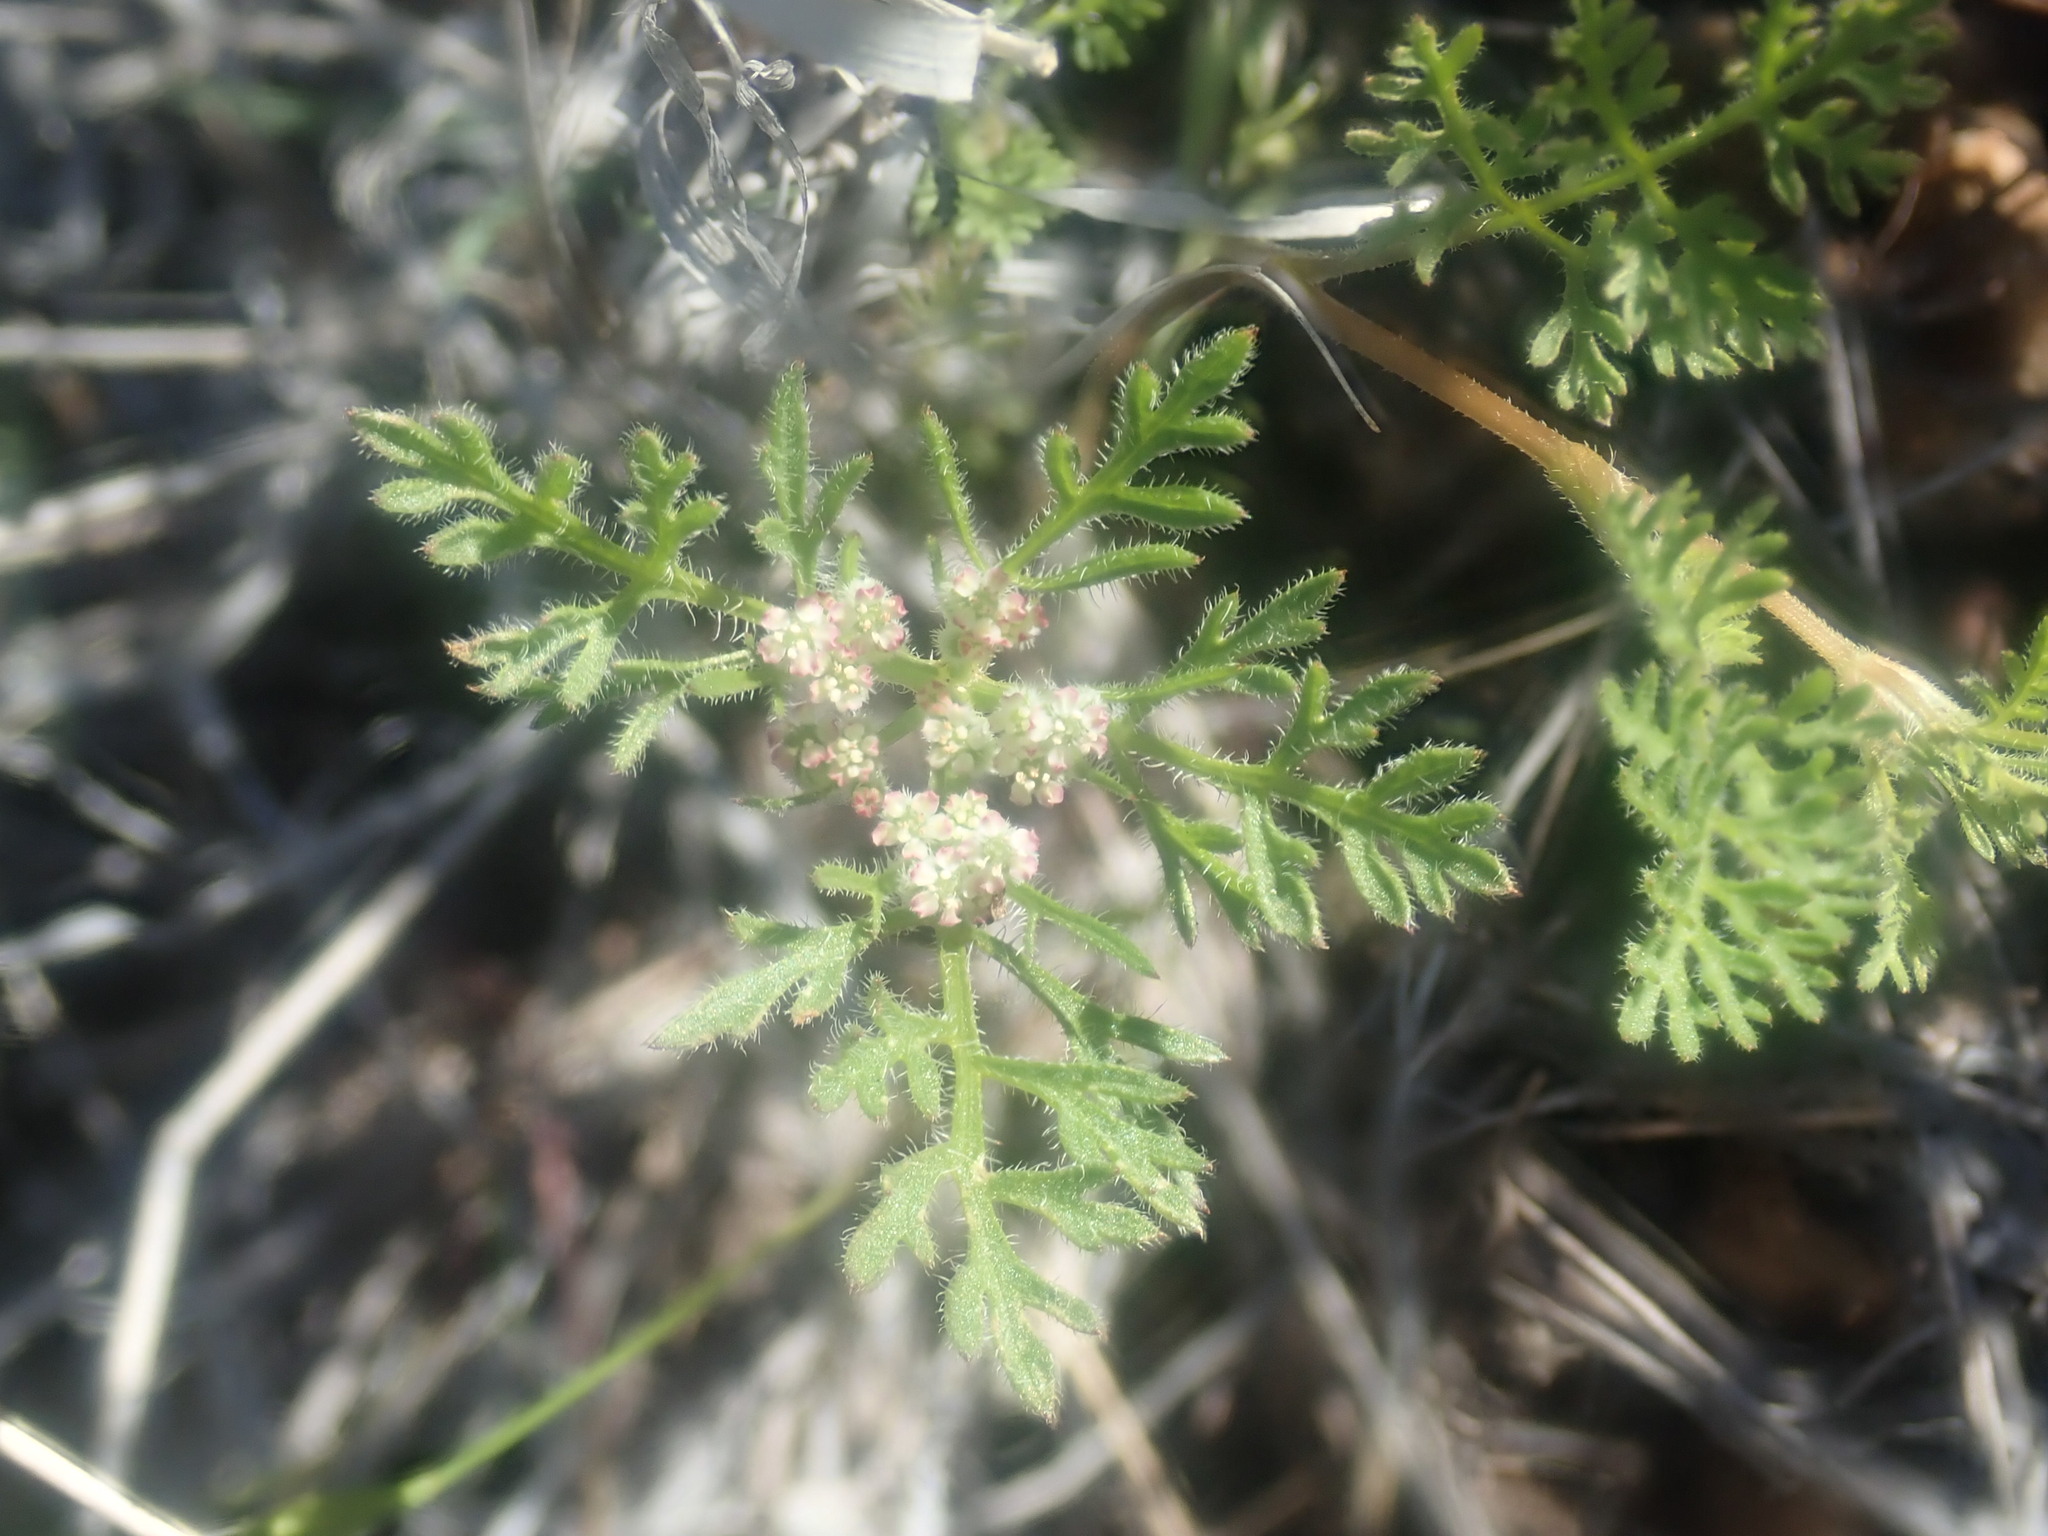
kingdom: Plantae
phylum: Tracheophyta
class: Magnoliopsida
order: Apiales
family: Apiaceae
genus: Daucus
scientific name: Daucus pusillus
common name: Southwest wild carrot
